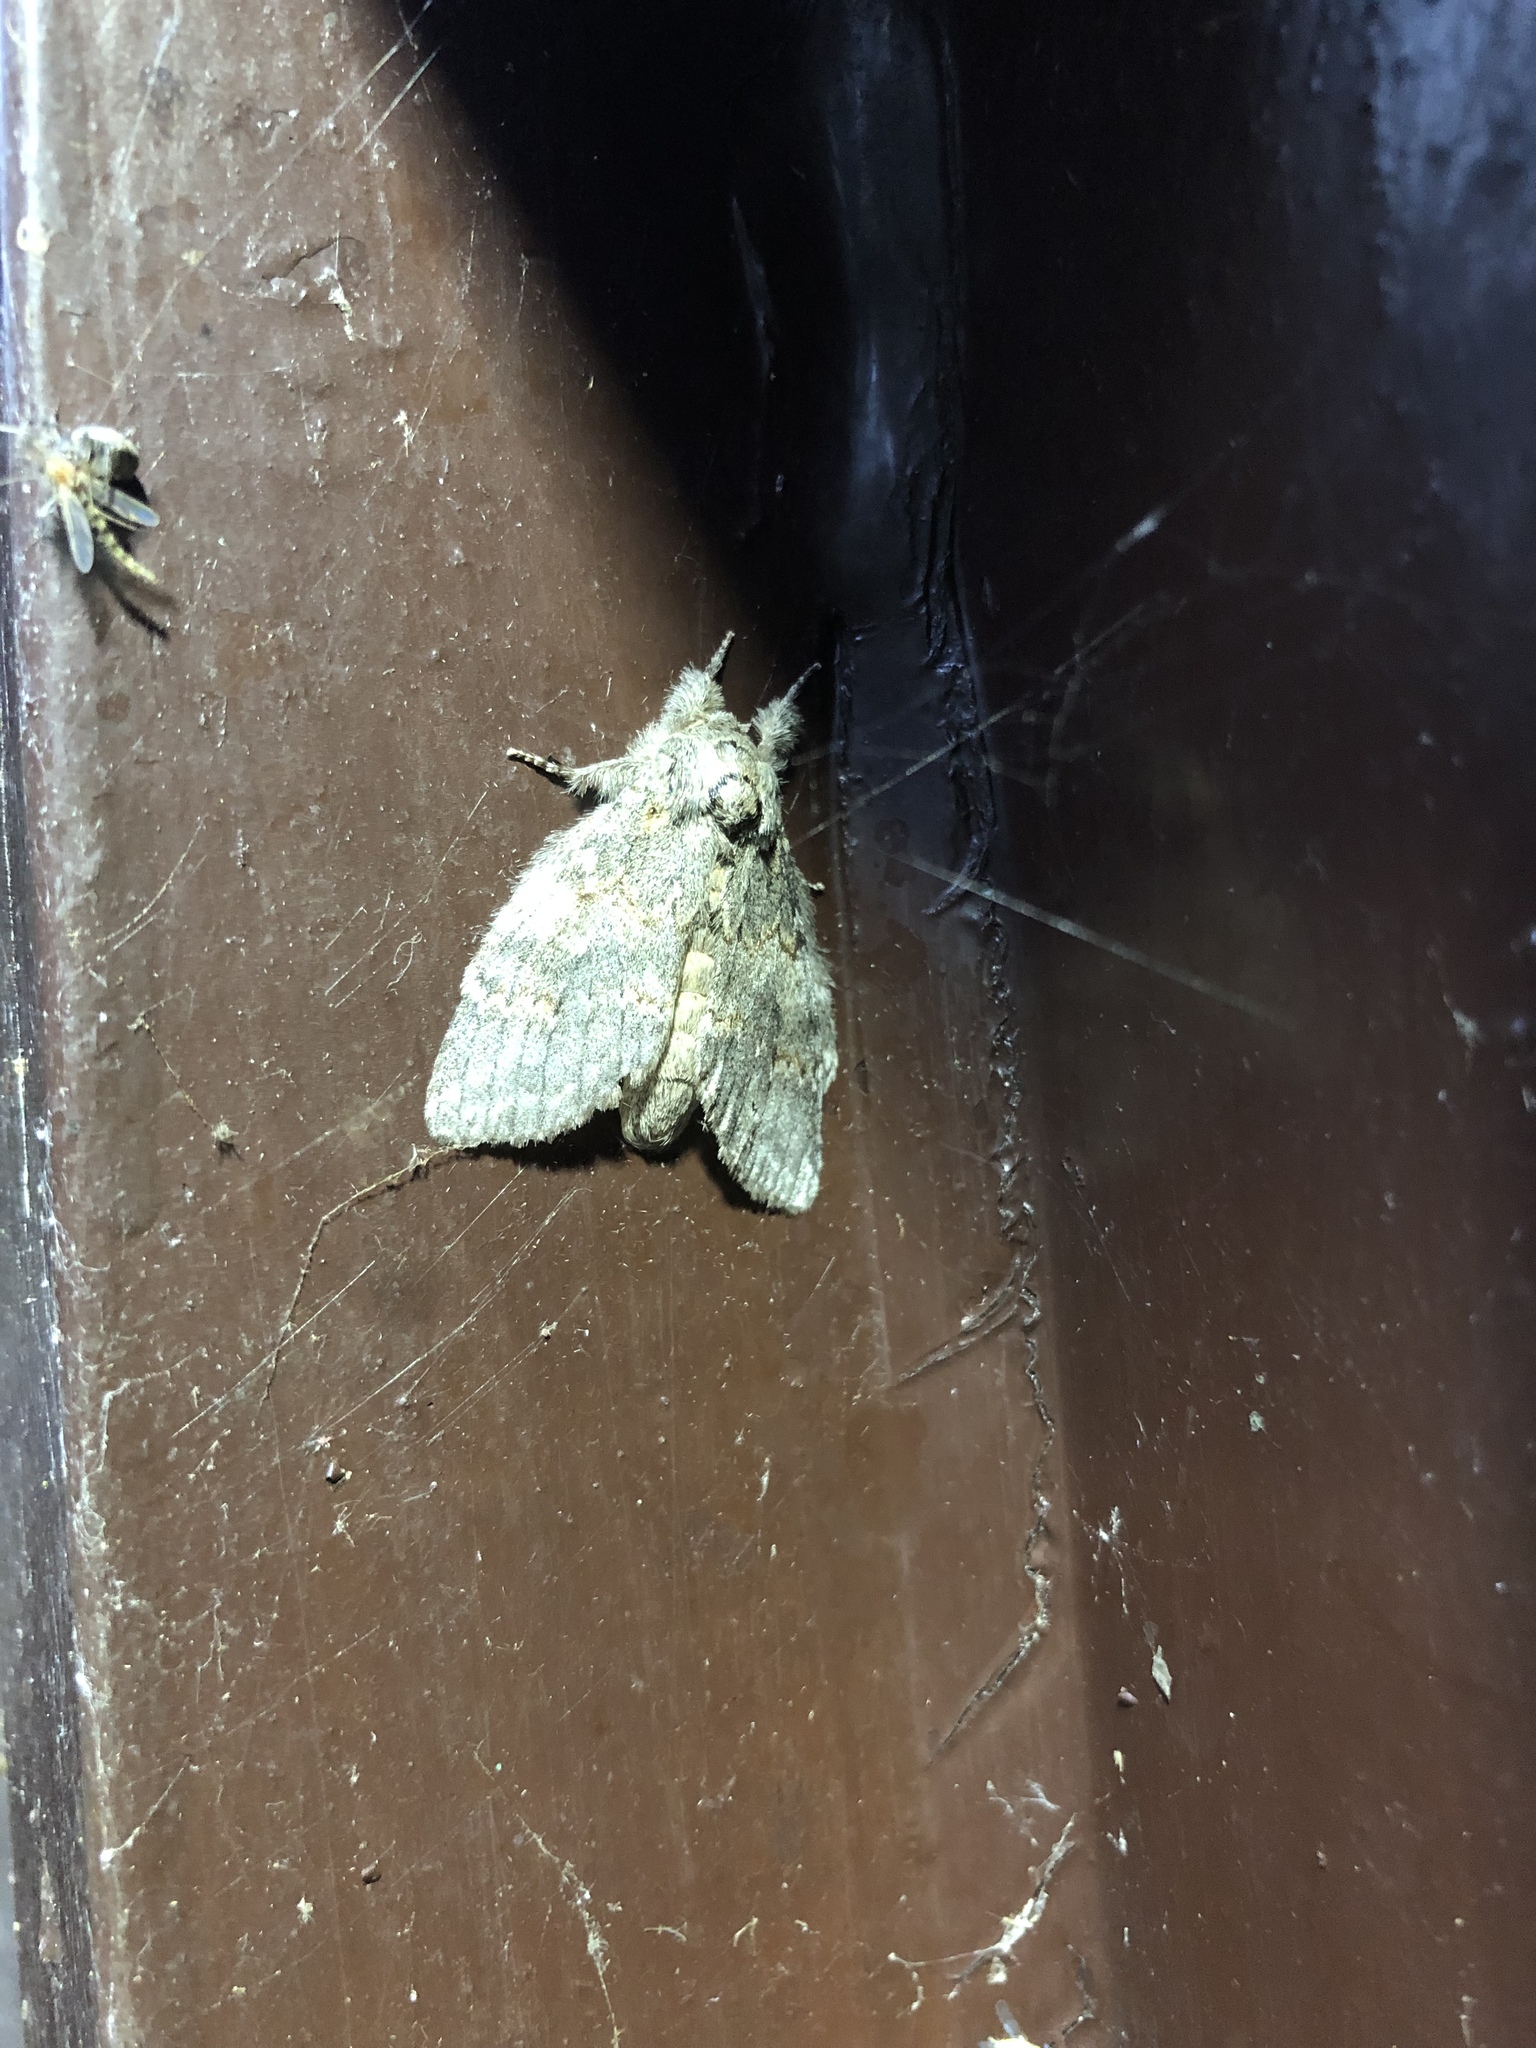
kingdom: Animalia
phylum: Arthropoda
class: Insecta
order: Lepidoptera
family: Notodontidae
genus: Peridea
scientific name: Peridea angulosa
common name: Angulose prominent
